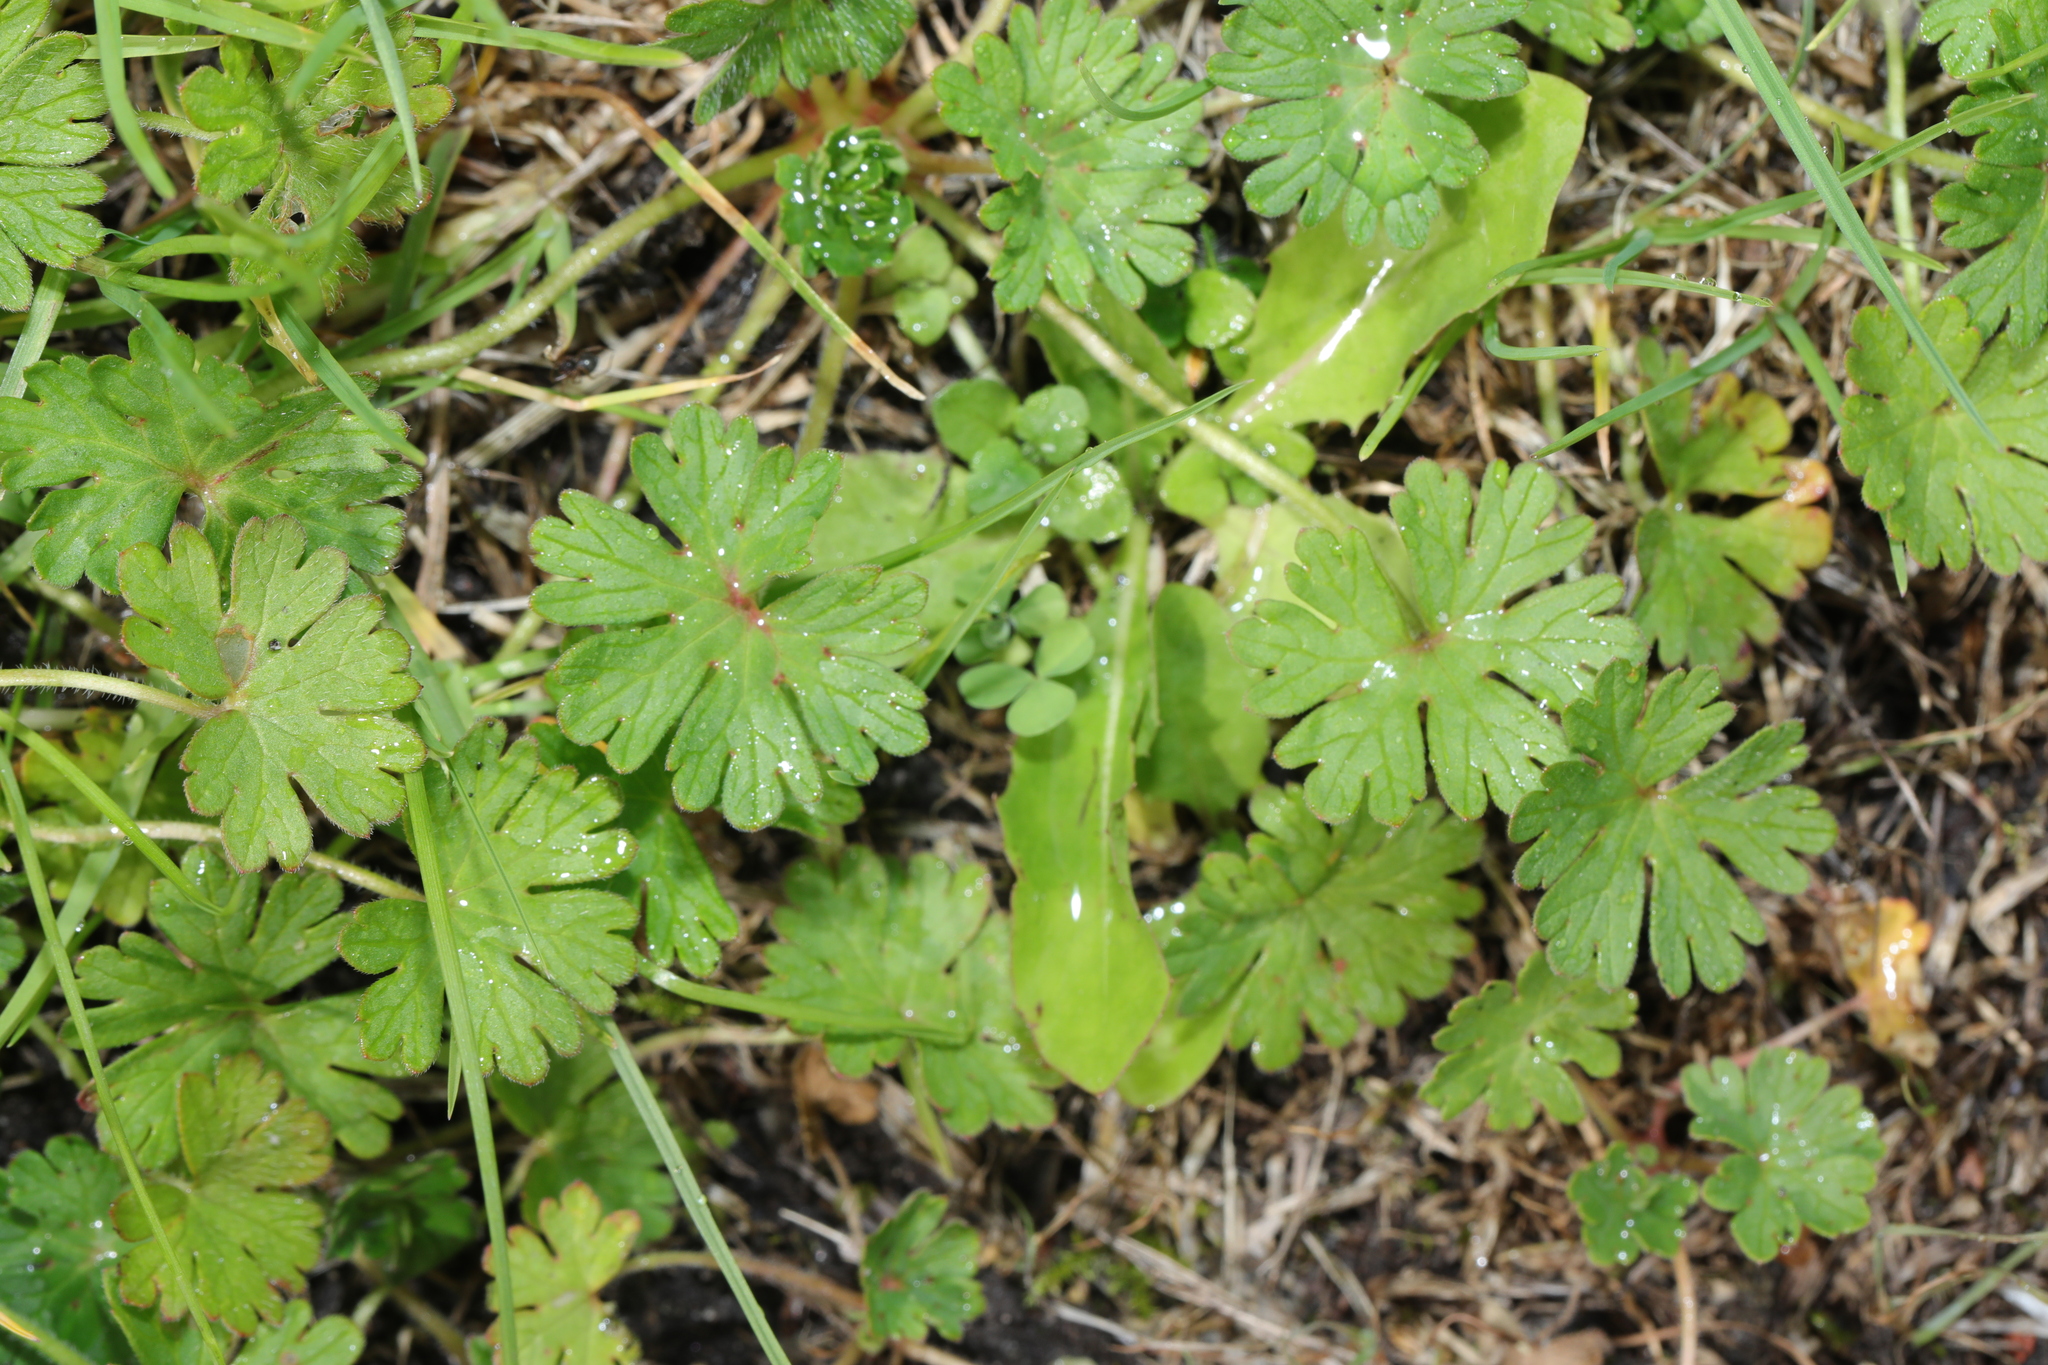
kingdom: Plantae
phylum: Tracheophyta
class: Magnoliopsida
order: Geraniales
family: Geraniaceae
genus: Geranium
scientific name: Geranium molle
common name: Dove's-foot crane's-bill
